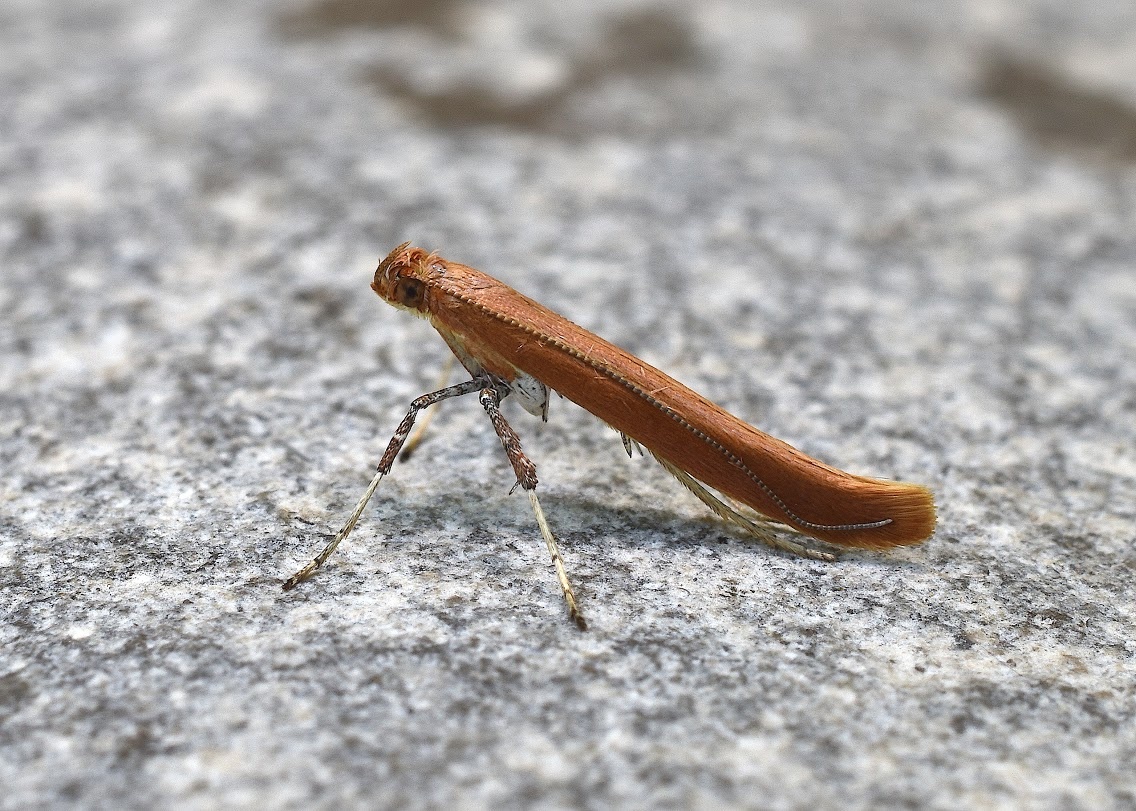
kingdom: Animalia
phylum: Arthropoda
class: Insecta
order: Lepidoptera
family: Gracillariidae
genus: Caloptilia
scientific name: Caloptilia invariabilis
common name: Cherry leaf-cone caterpillar moth
